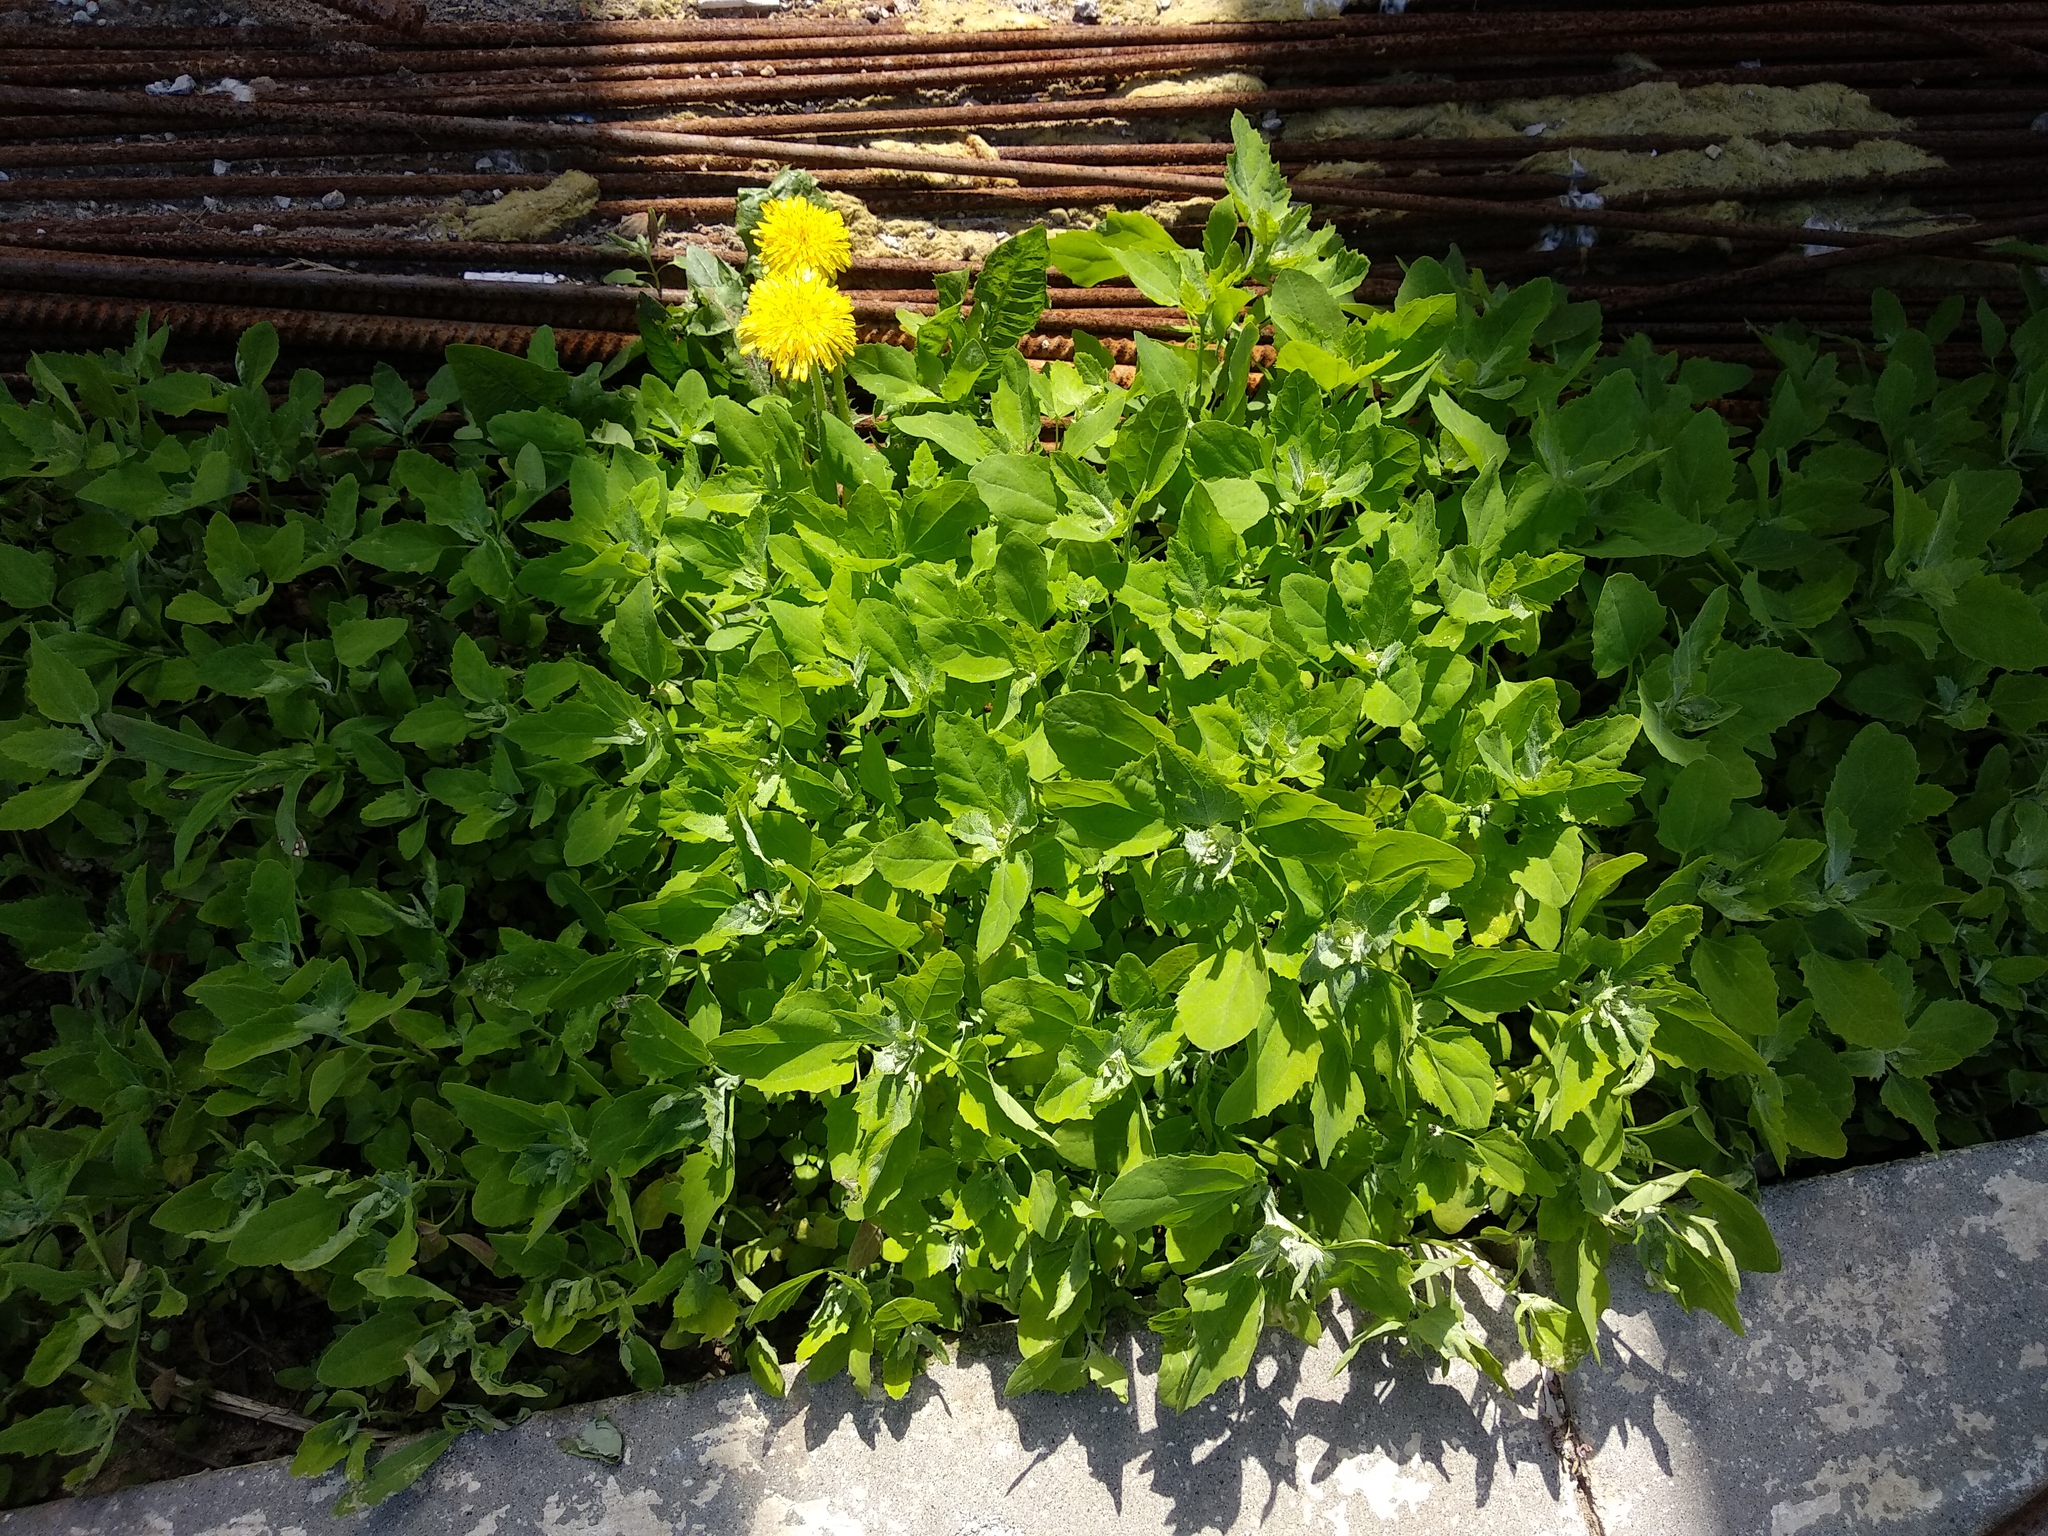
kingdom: Plantae
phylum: Tracheophyta
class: Magnoliopsida
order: Caryophyllales
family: Amaranthaceae
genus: Chenopodium
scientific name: Chenopodium album
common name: Fat-hen
